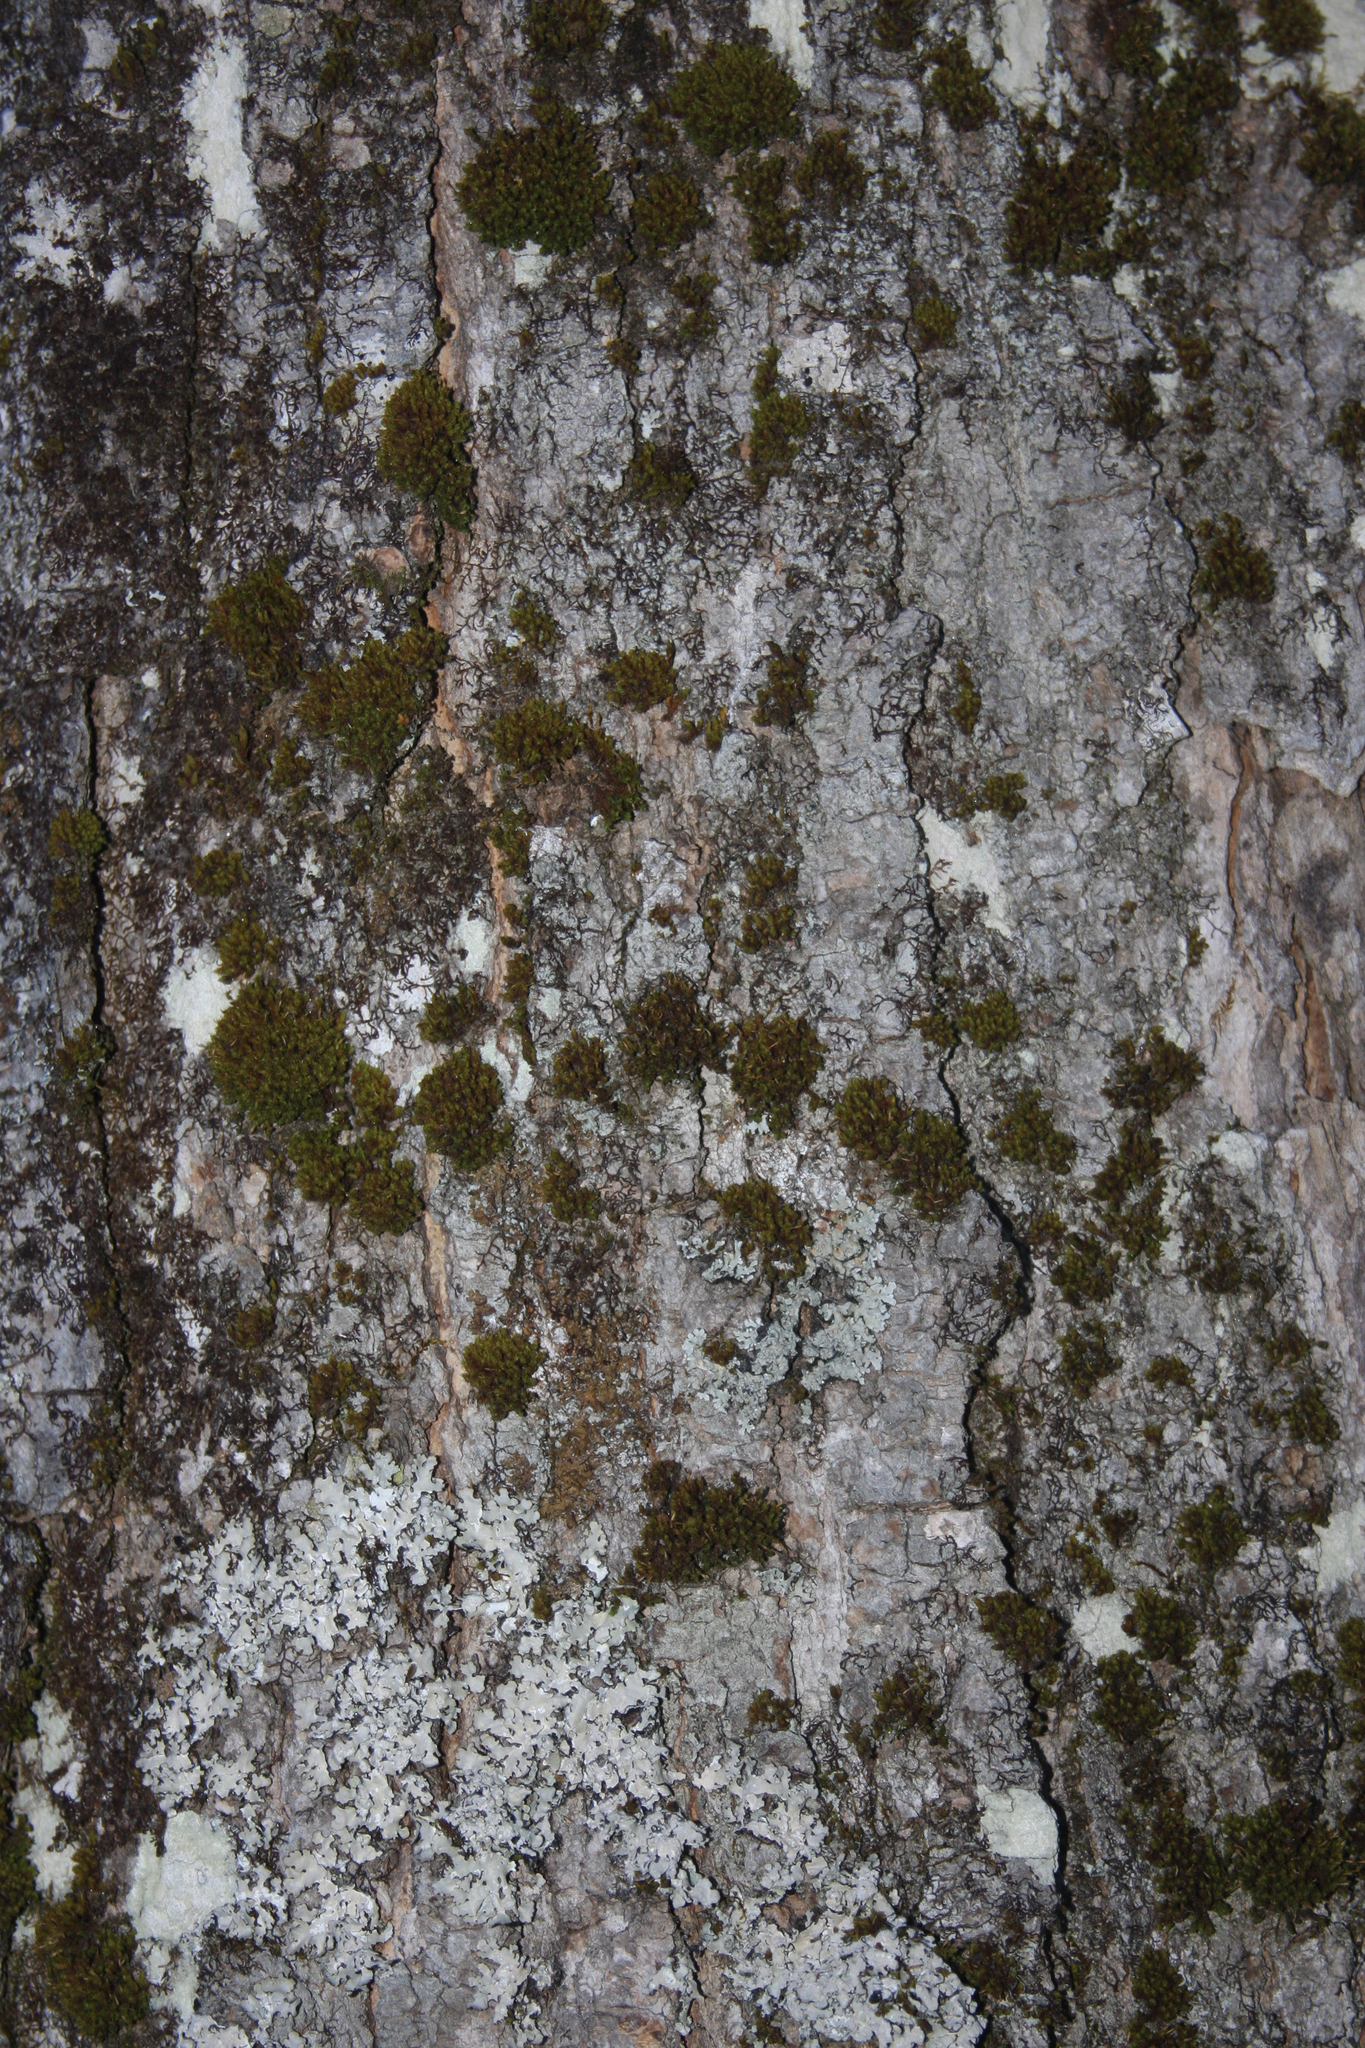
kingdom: Plantae
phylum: Bryophyta
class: Bryopsida
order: Orthotrichales
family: Orthotrichaceae
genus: Ulota
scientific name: Ulota crispa
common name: Crisped pincushion moss
